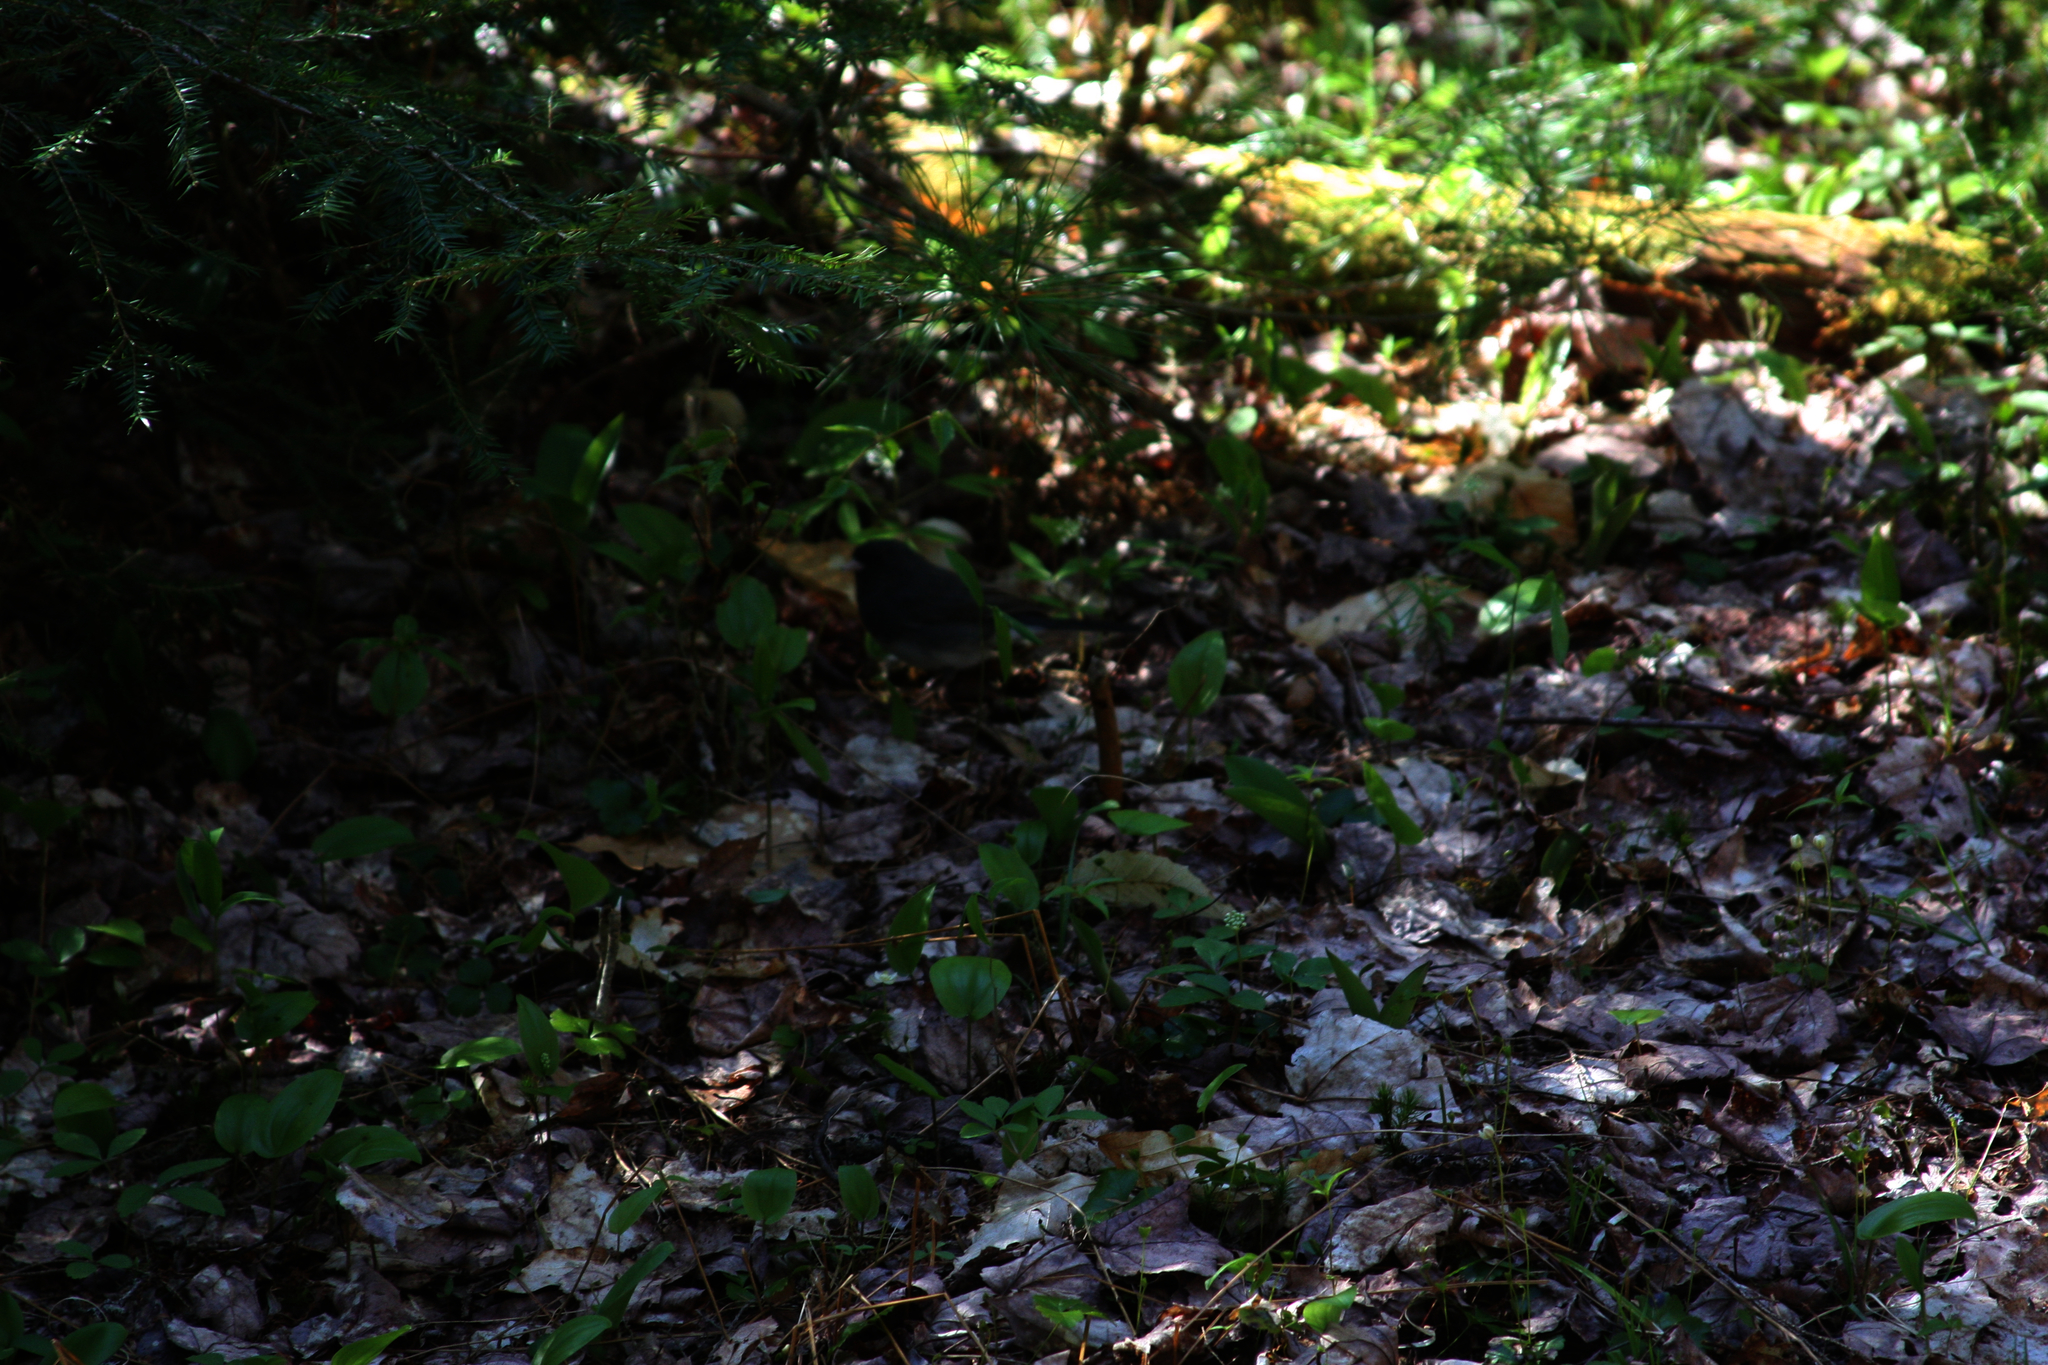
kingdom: Animalia
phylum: Chordata
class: Aves
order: Passeriformes
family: Passerellidae
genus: Junco
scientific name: Junco hyemalis
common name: Dark-eyed junco
